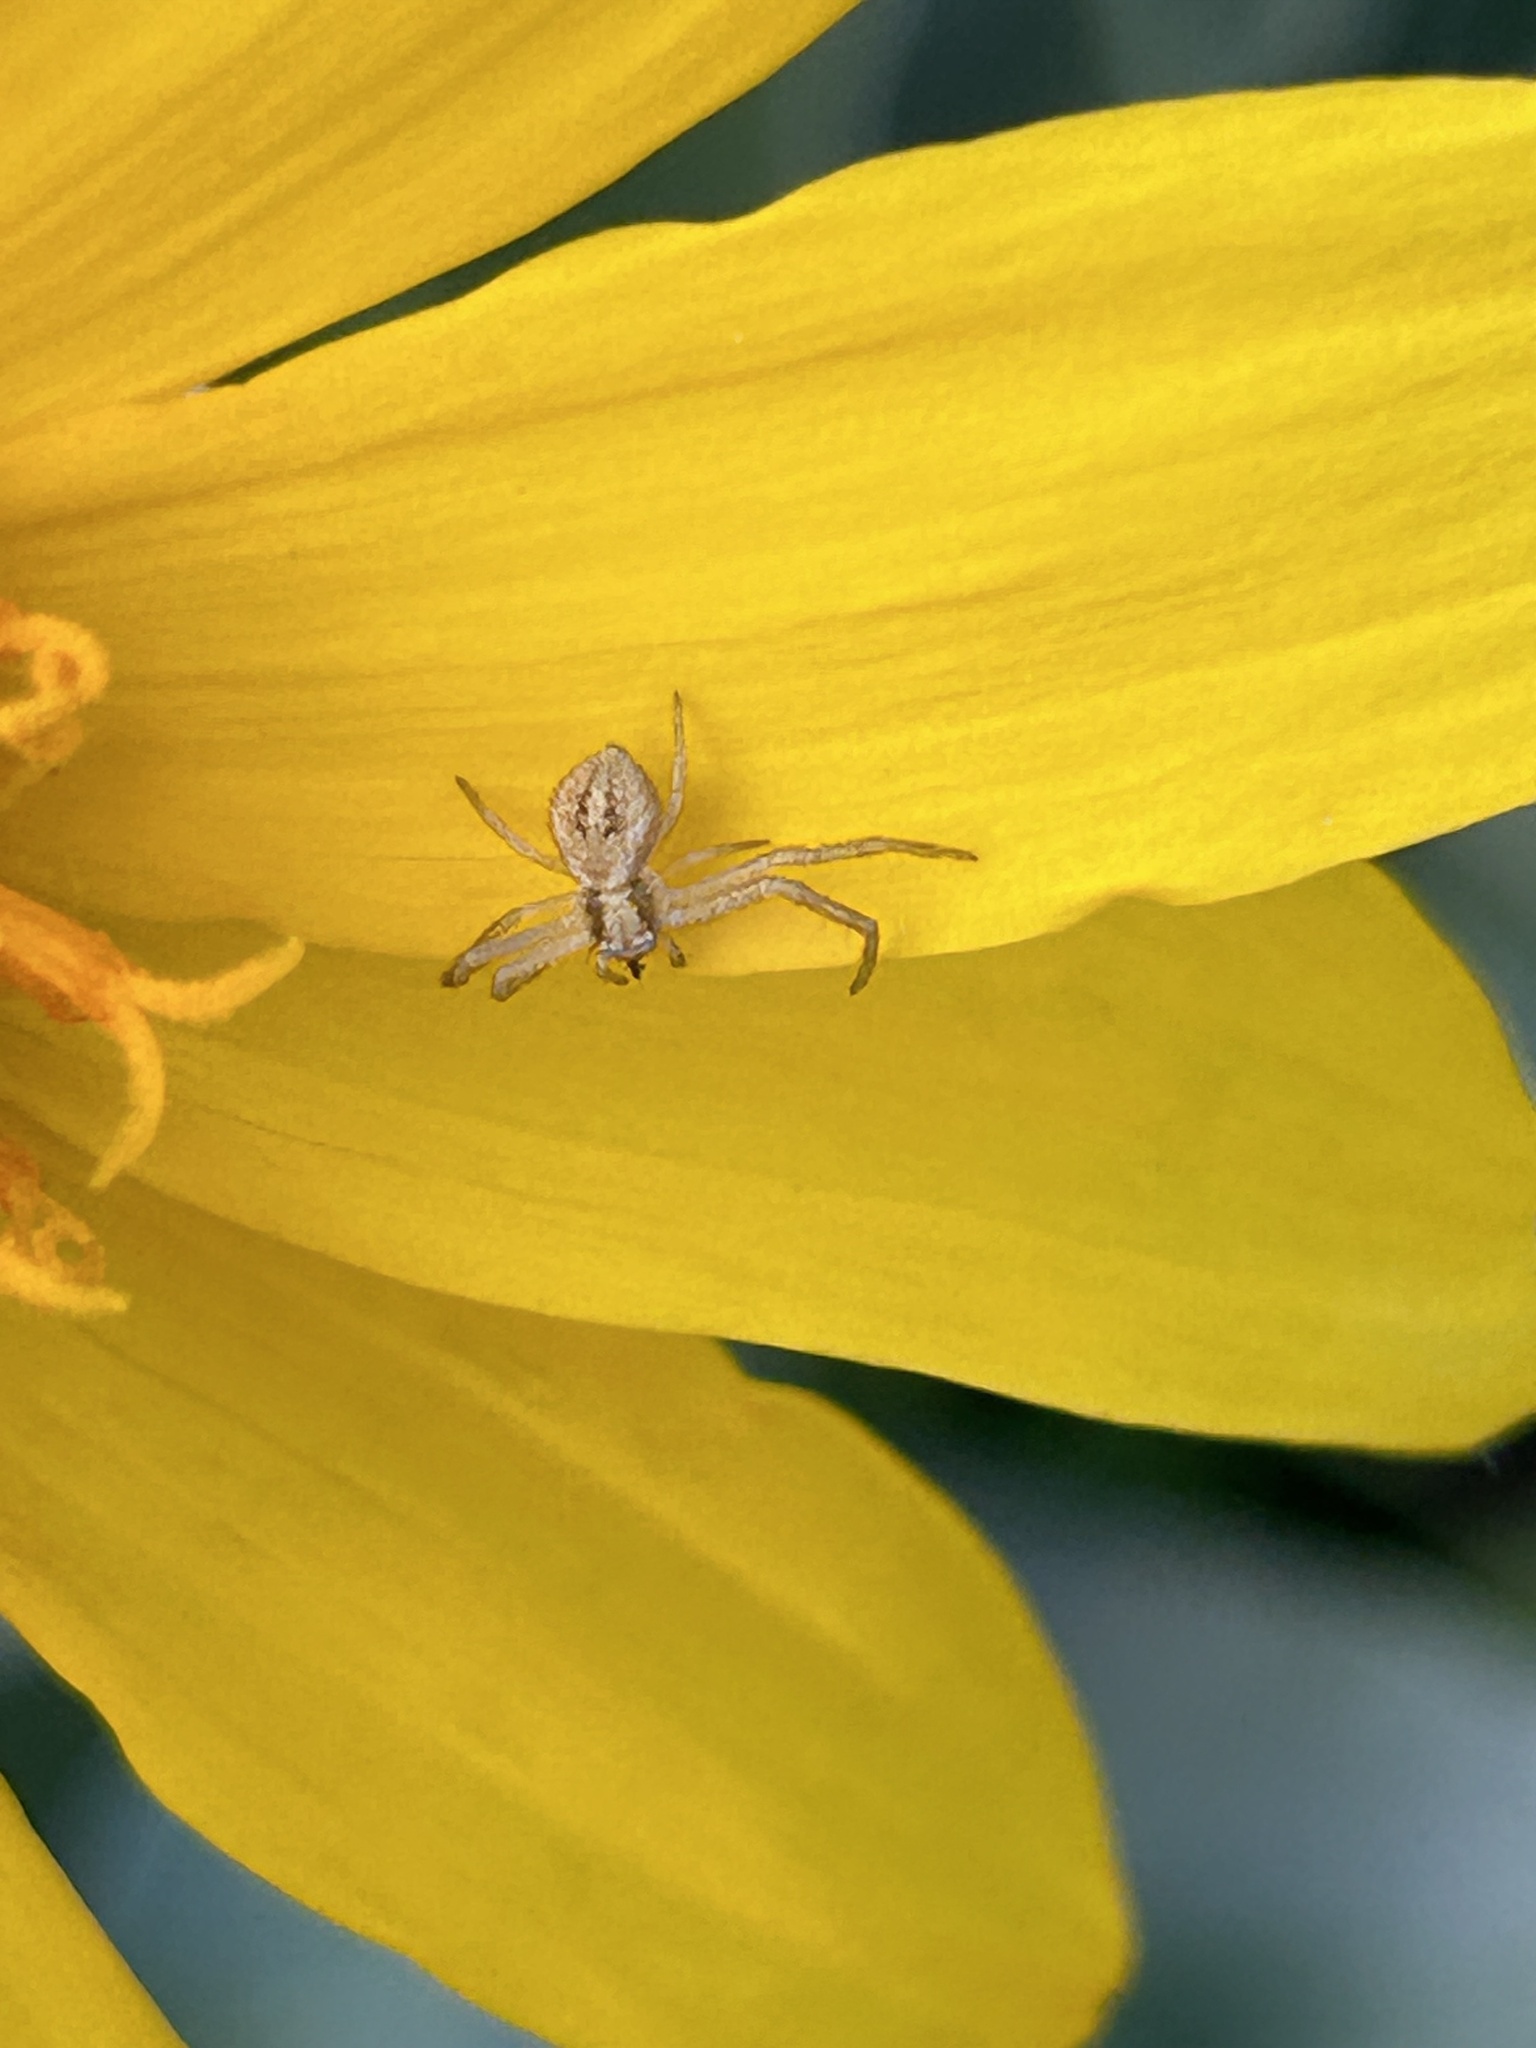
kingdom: Animalia
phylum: Arthropoda
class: Arachnida
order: Araneae
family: Thomisidae
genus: Mecaphesa
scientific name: Mecaphesa
